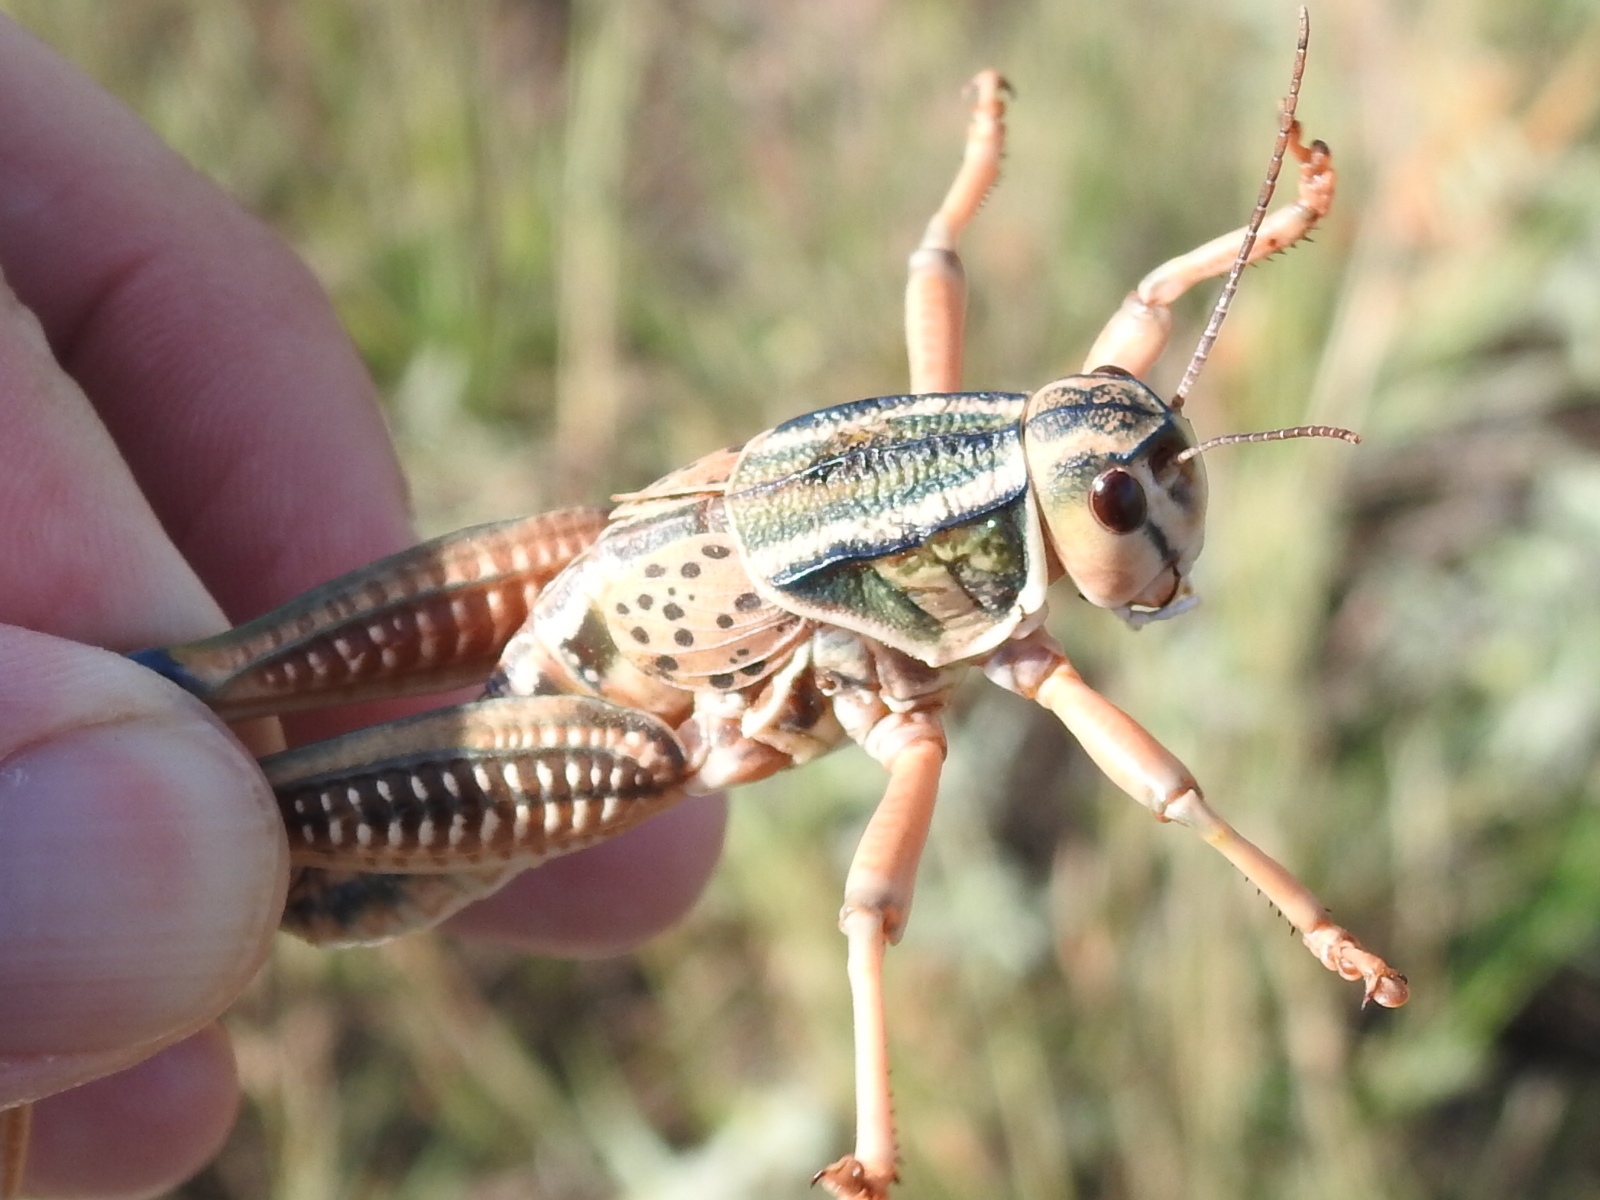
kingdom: Animalia
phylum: Arthropoda
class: Insecta
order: Orthoptera
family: Romaleidae
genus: Brachystola
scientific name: Brachystola magna
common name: Plains lubber grasshopper
